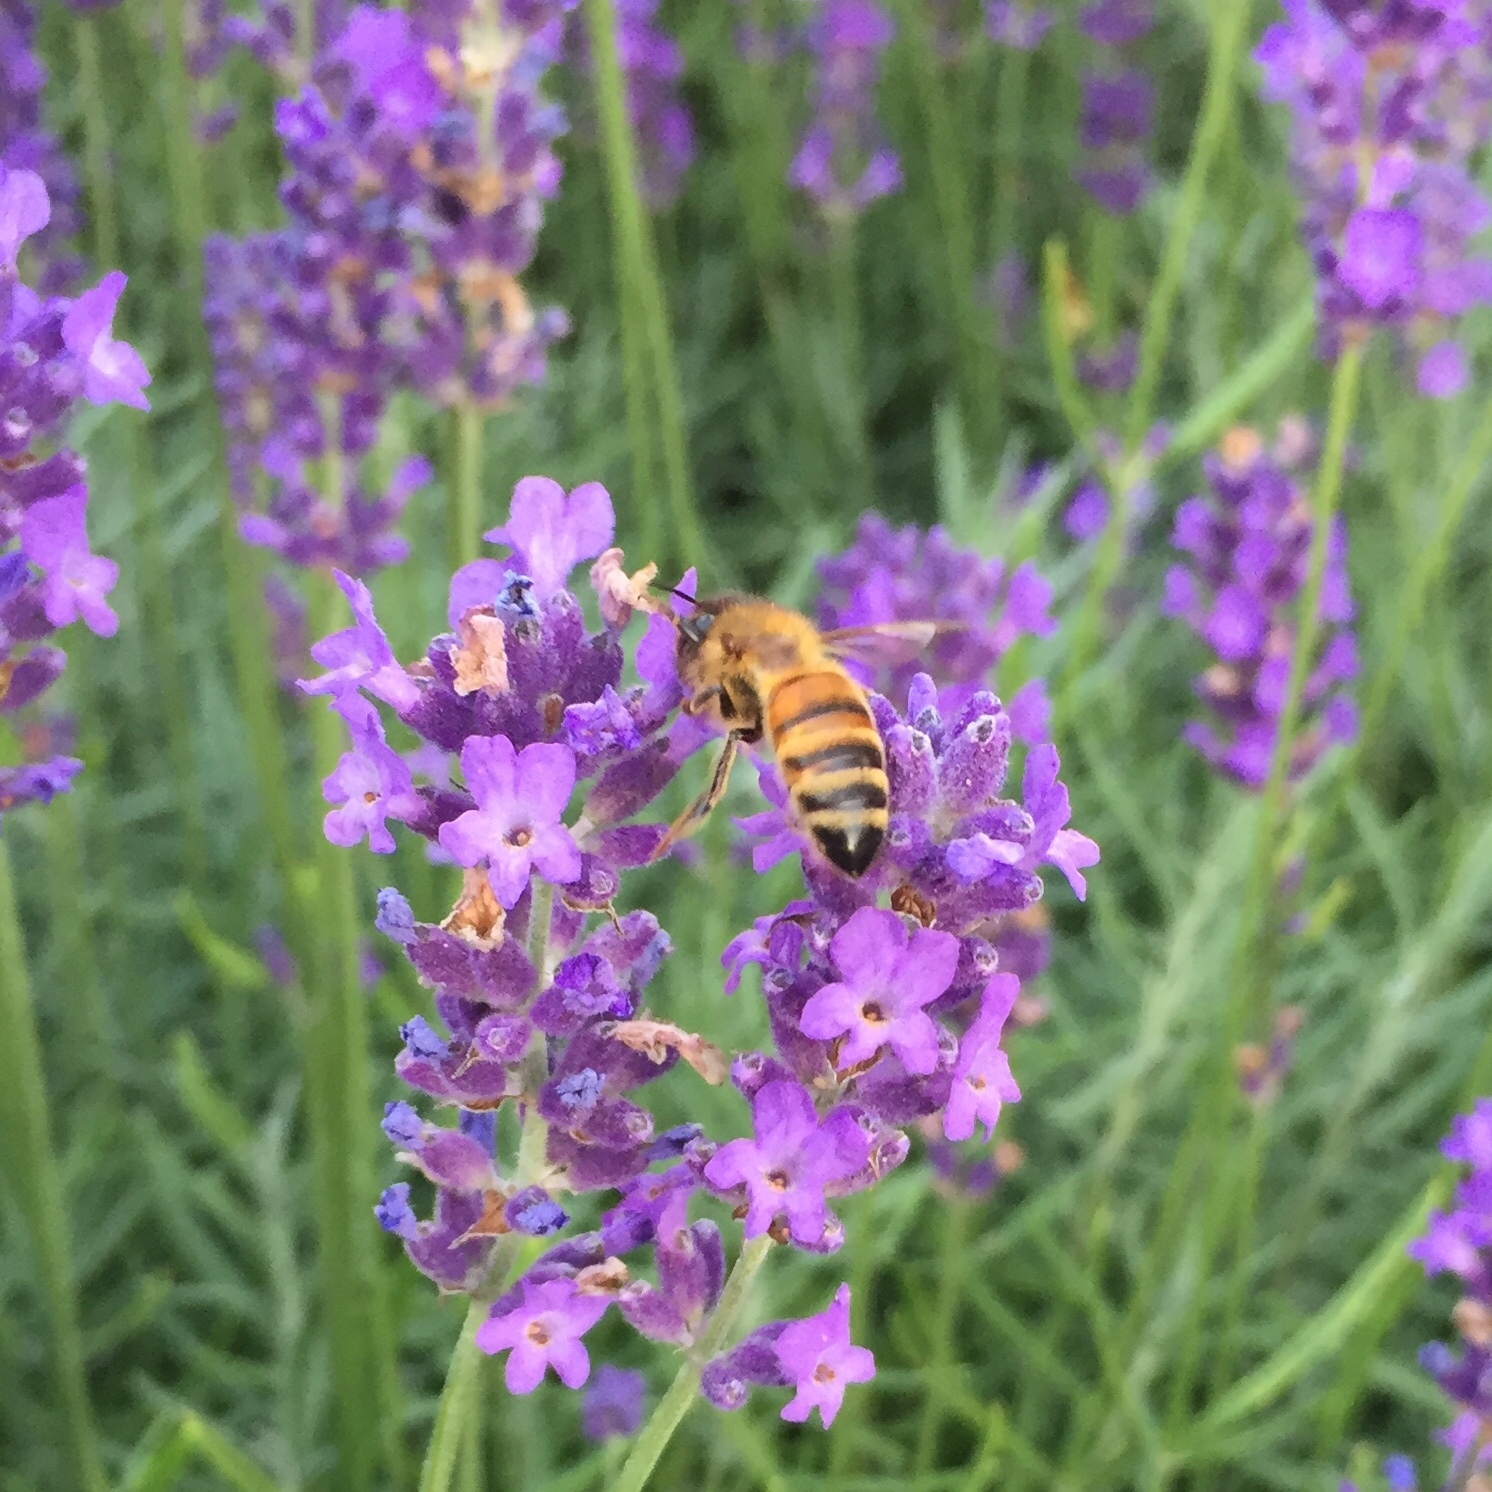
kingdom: Animalia
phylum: Arthropoda
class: Insecta
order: Hymenoptera
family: Apidae
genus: Apis
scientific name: Apis mellifera
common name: Honey bee
